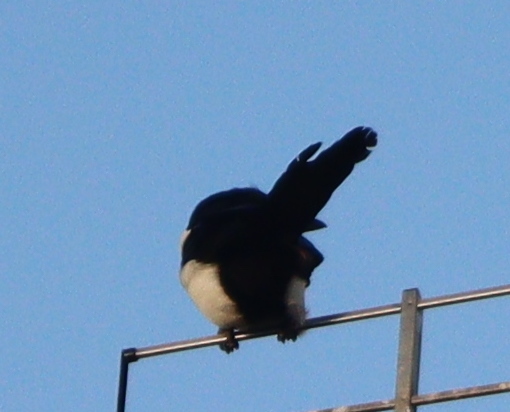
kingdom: Animalia
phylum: Chordata
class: Aves
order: Passeriformes
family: Corvidae
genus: Pica
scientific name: Pica pica
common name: Eurasian magpie
